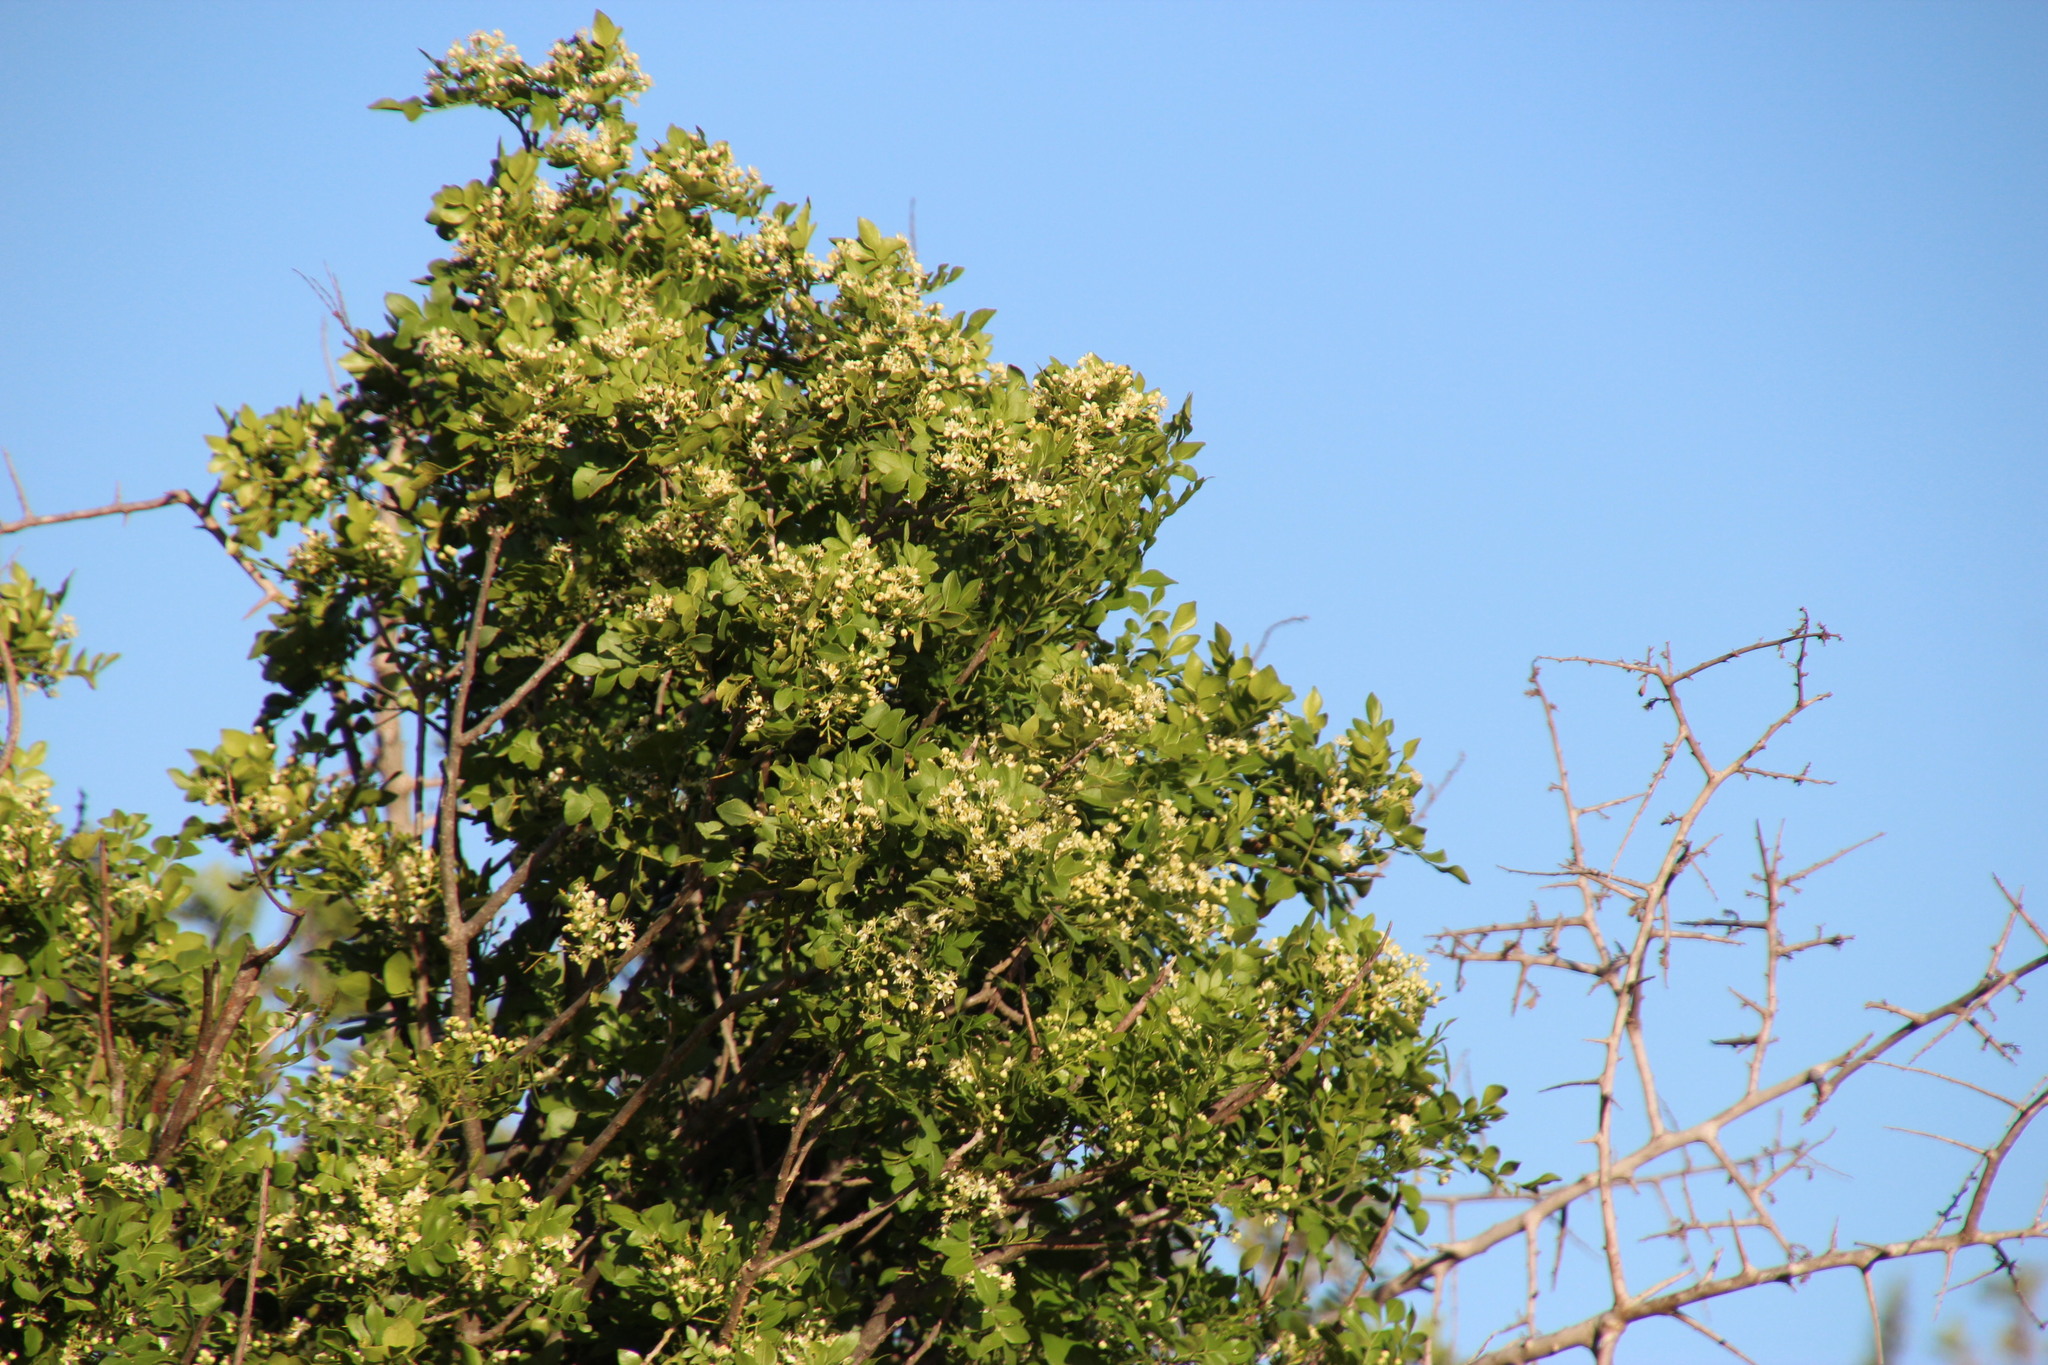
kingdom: Plantae
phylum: Tracheophyta
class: Magnoliopsida
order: Sapindales
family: Rutaceae
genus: Clausena
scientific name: Clausena anisata
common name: Horsewood
